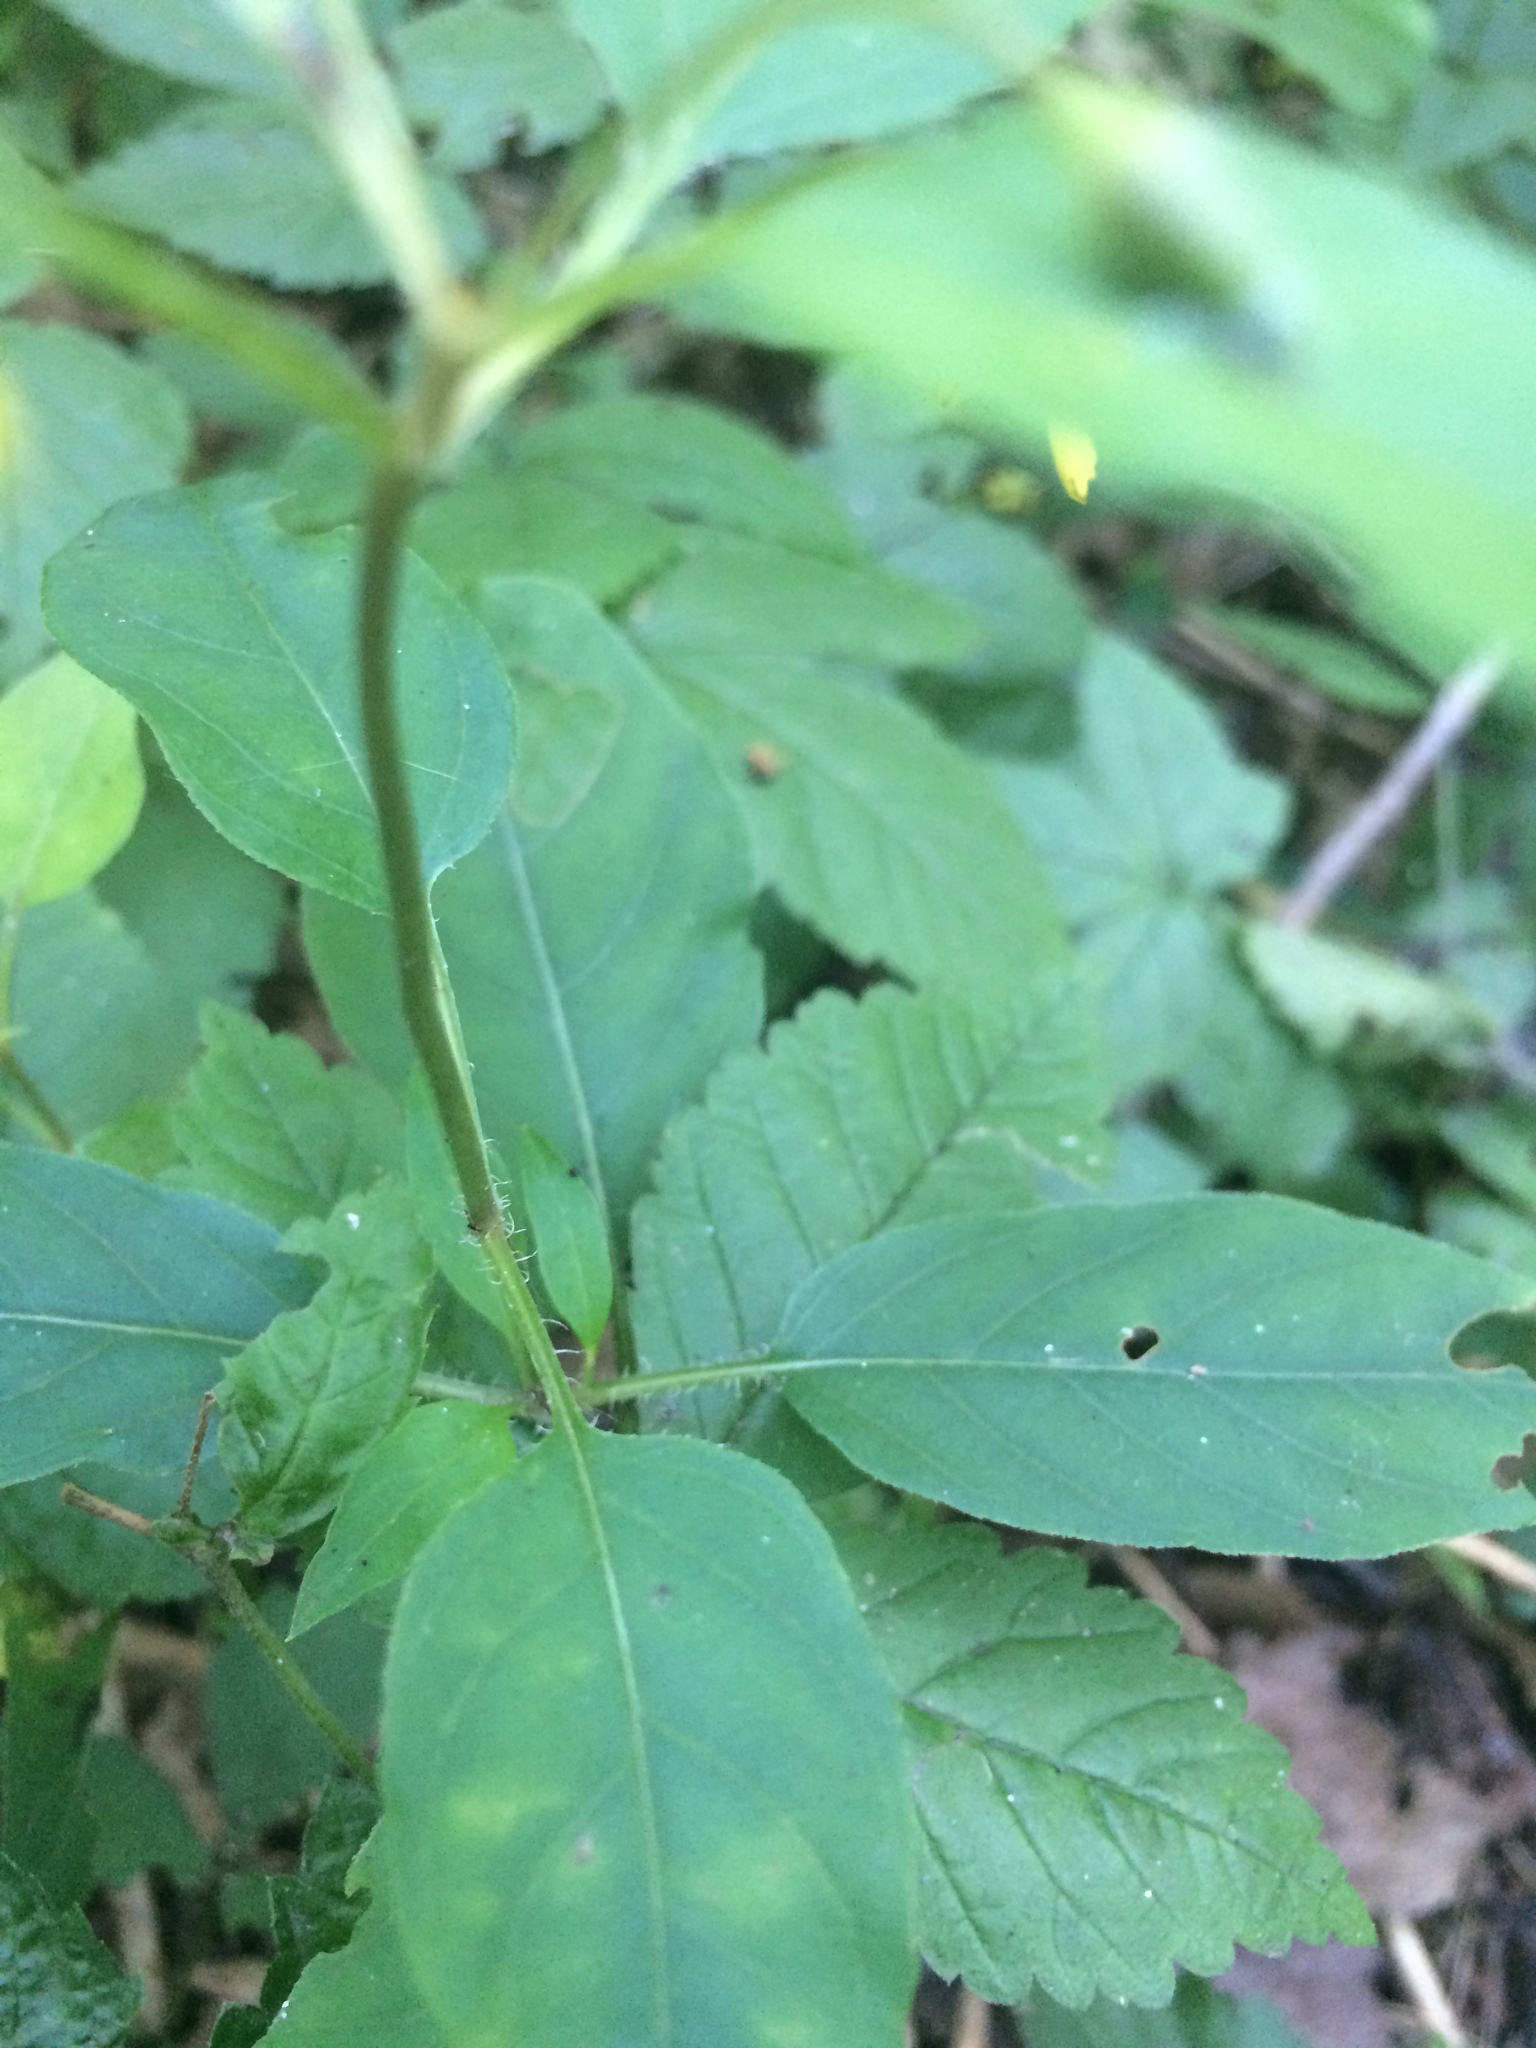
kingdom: Plantae
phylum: Tracheophyta
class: Magnoliopsida
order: Ericales
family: Primulaceae
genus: Lysimachia
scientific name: Lysimachia ciliata
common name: Fringed loosestrife
